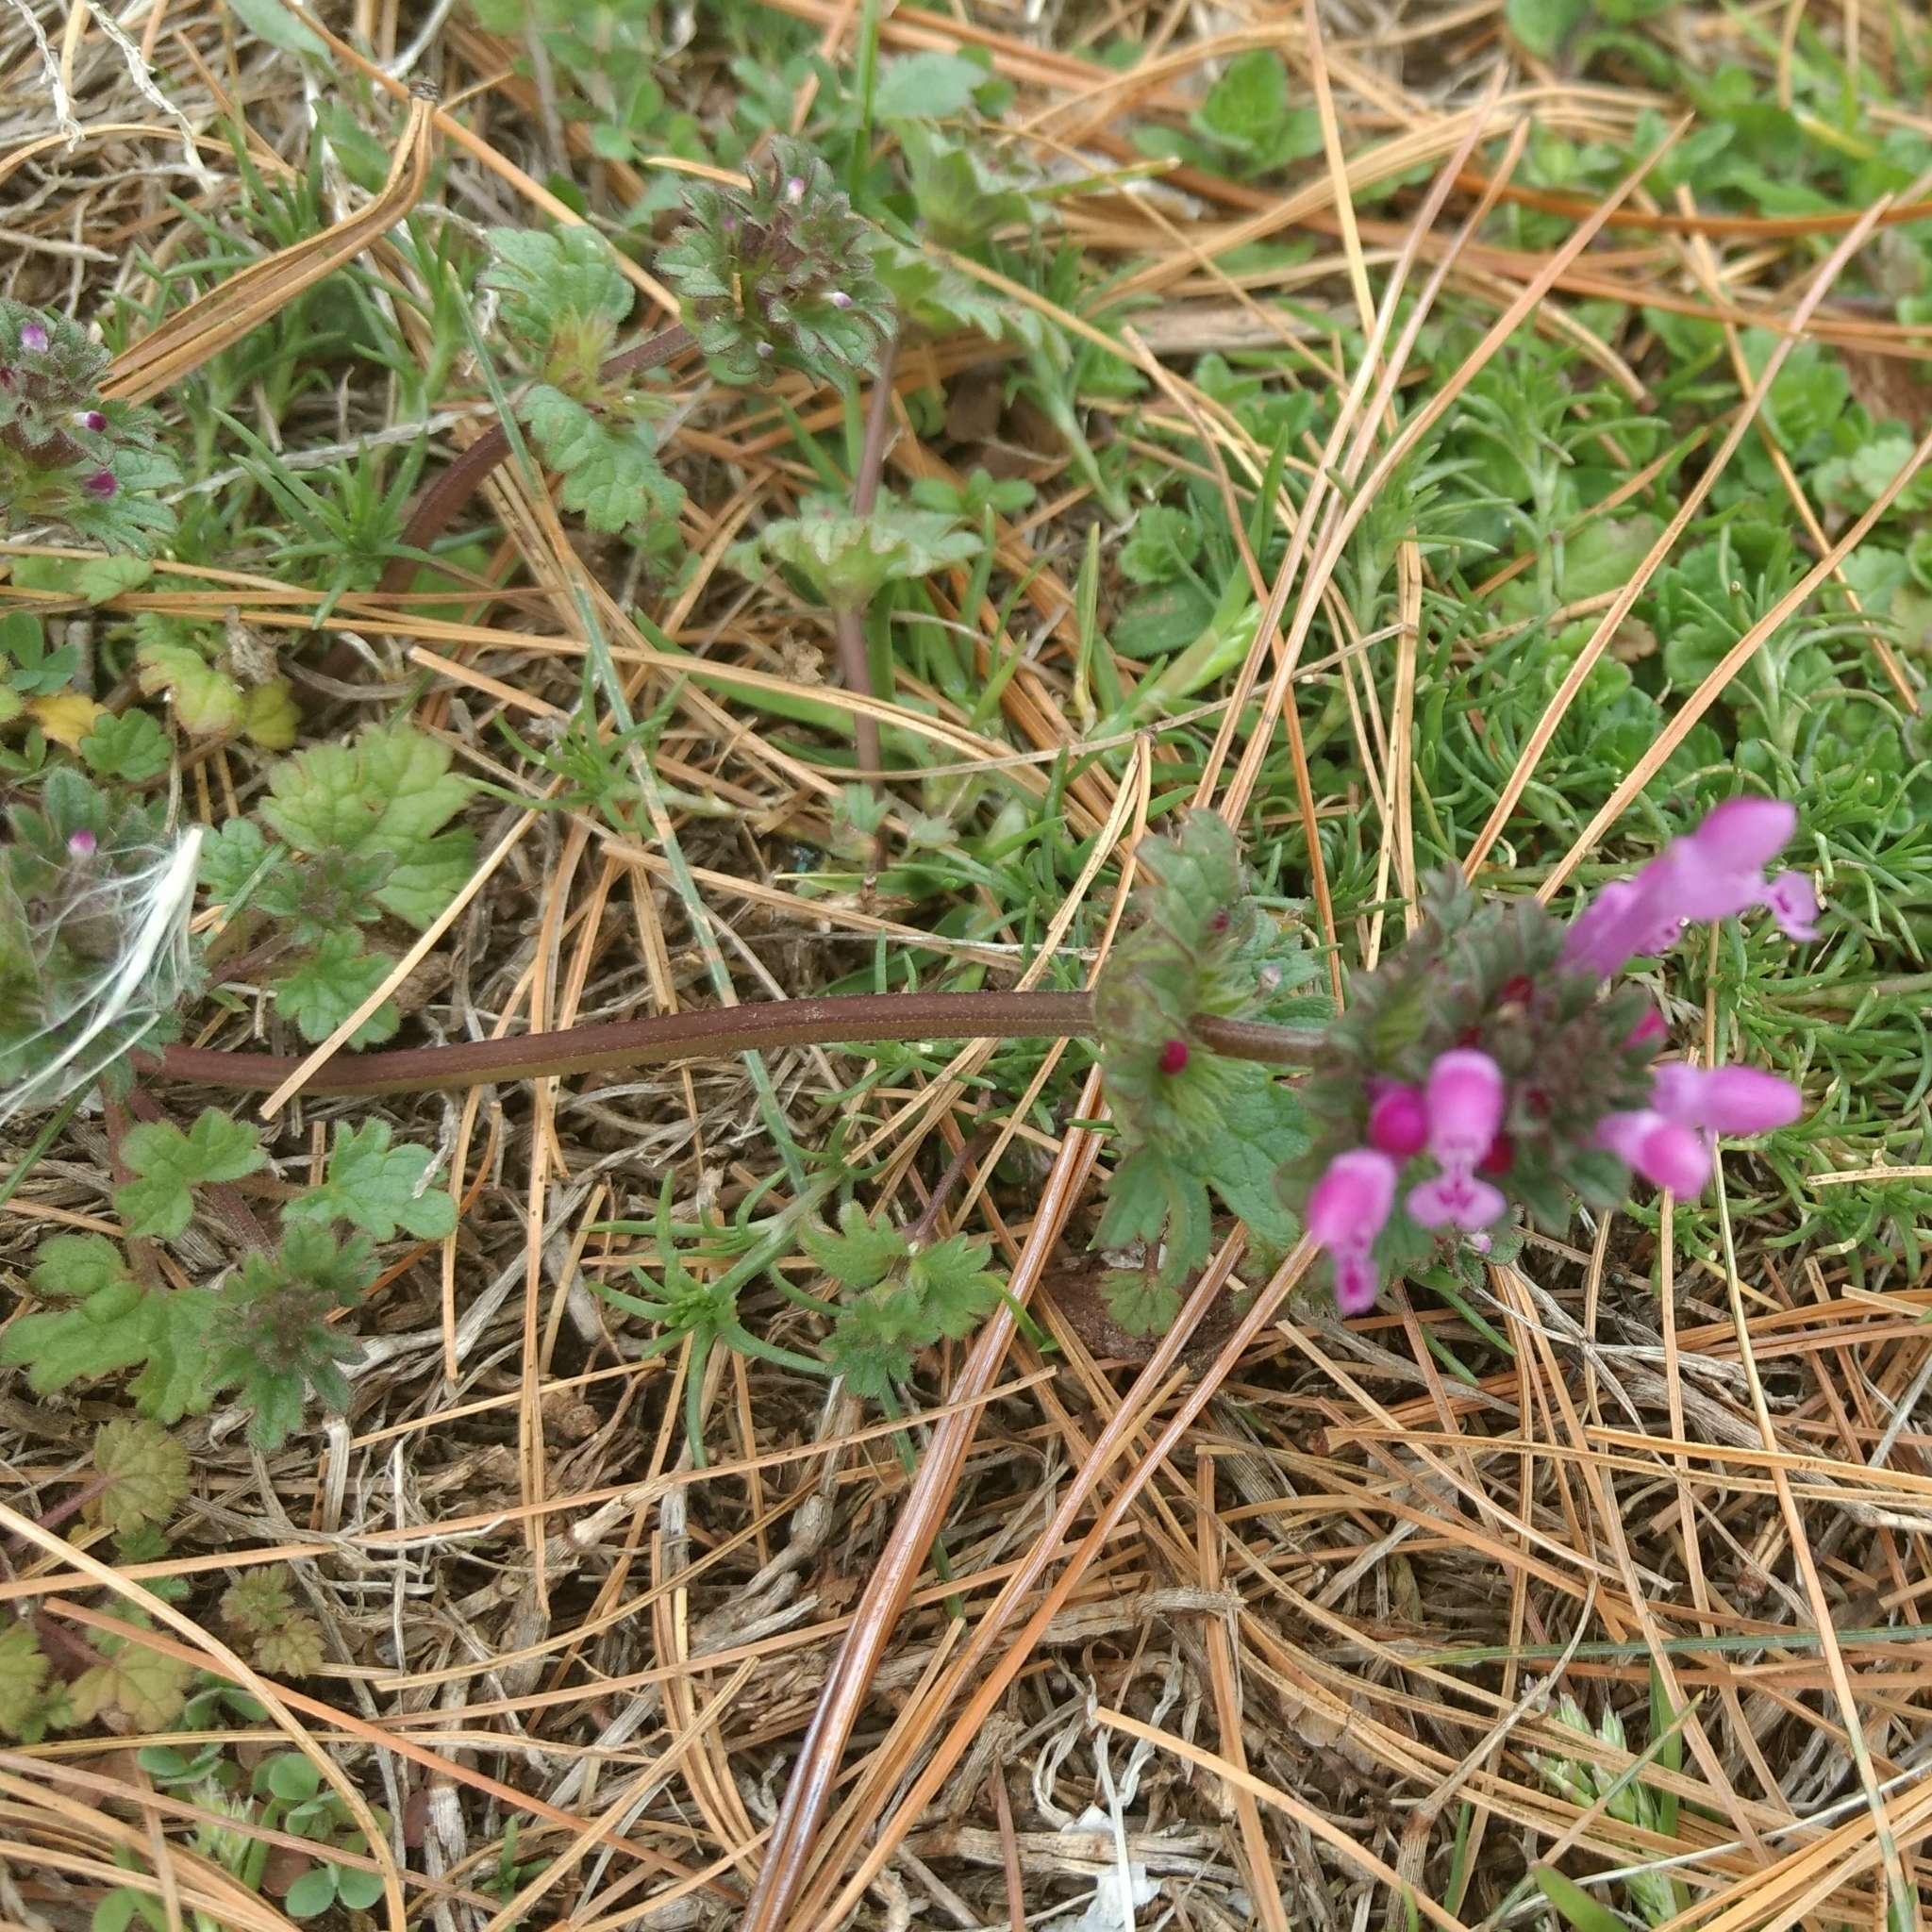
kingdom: Plantae
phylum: Tracheophyta
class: Magnoliopsida
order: Lamiales
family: Lamiaceae
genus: Lamium
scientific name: Lamium amplexicaule
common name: Henbit dead-nettle
